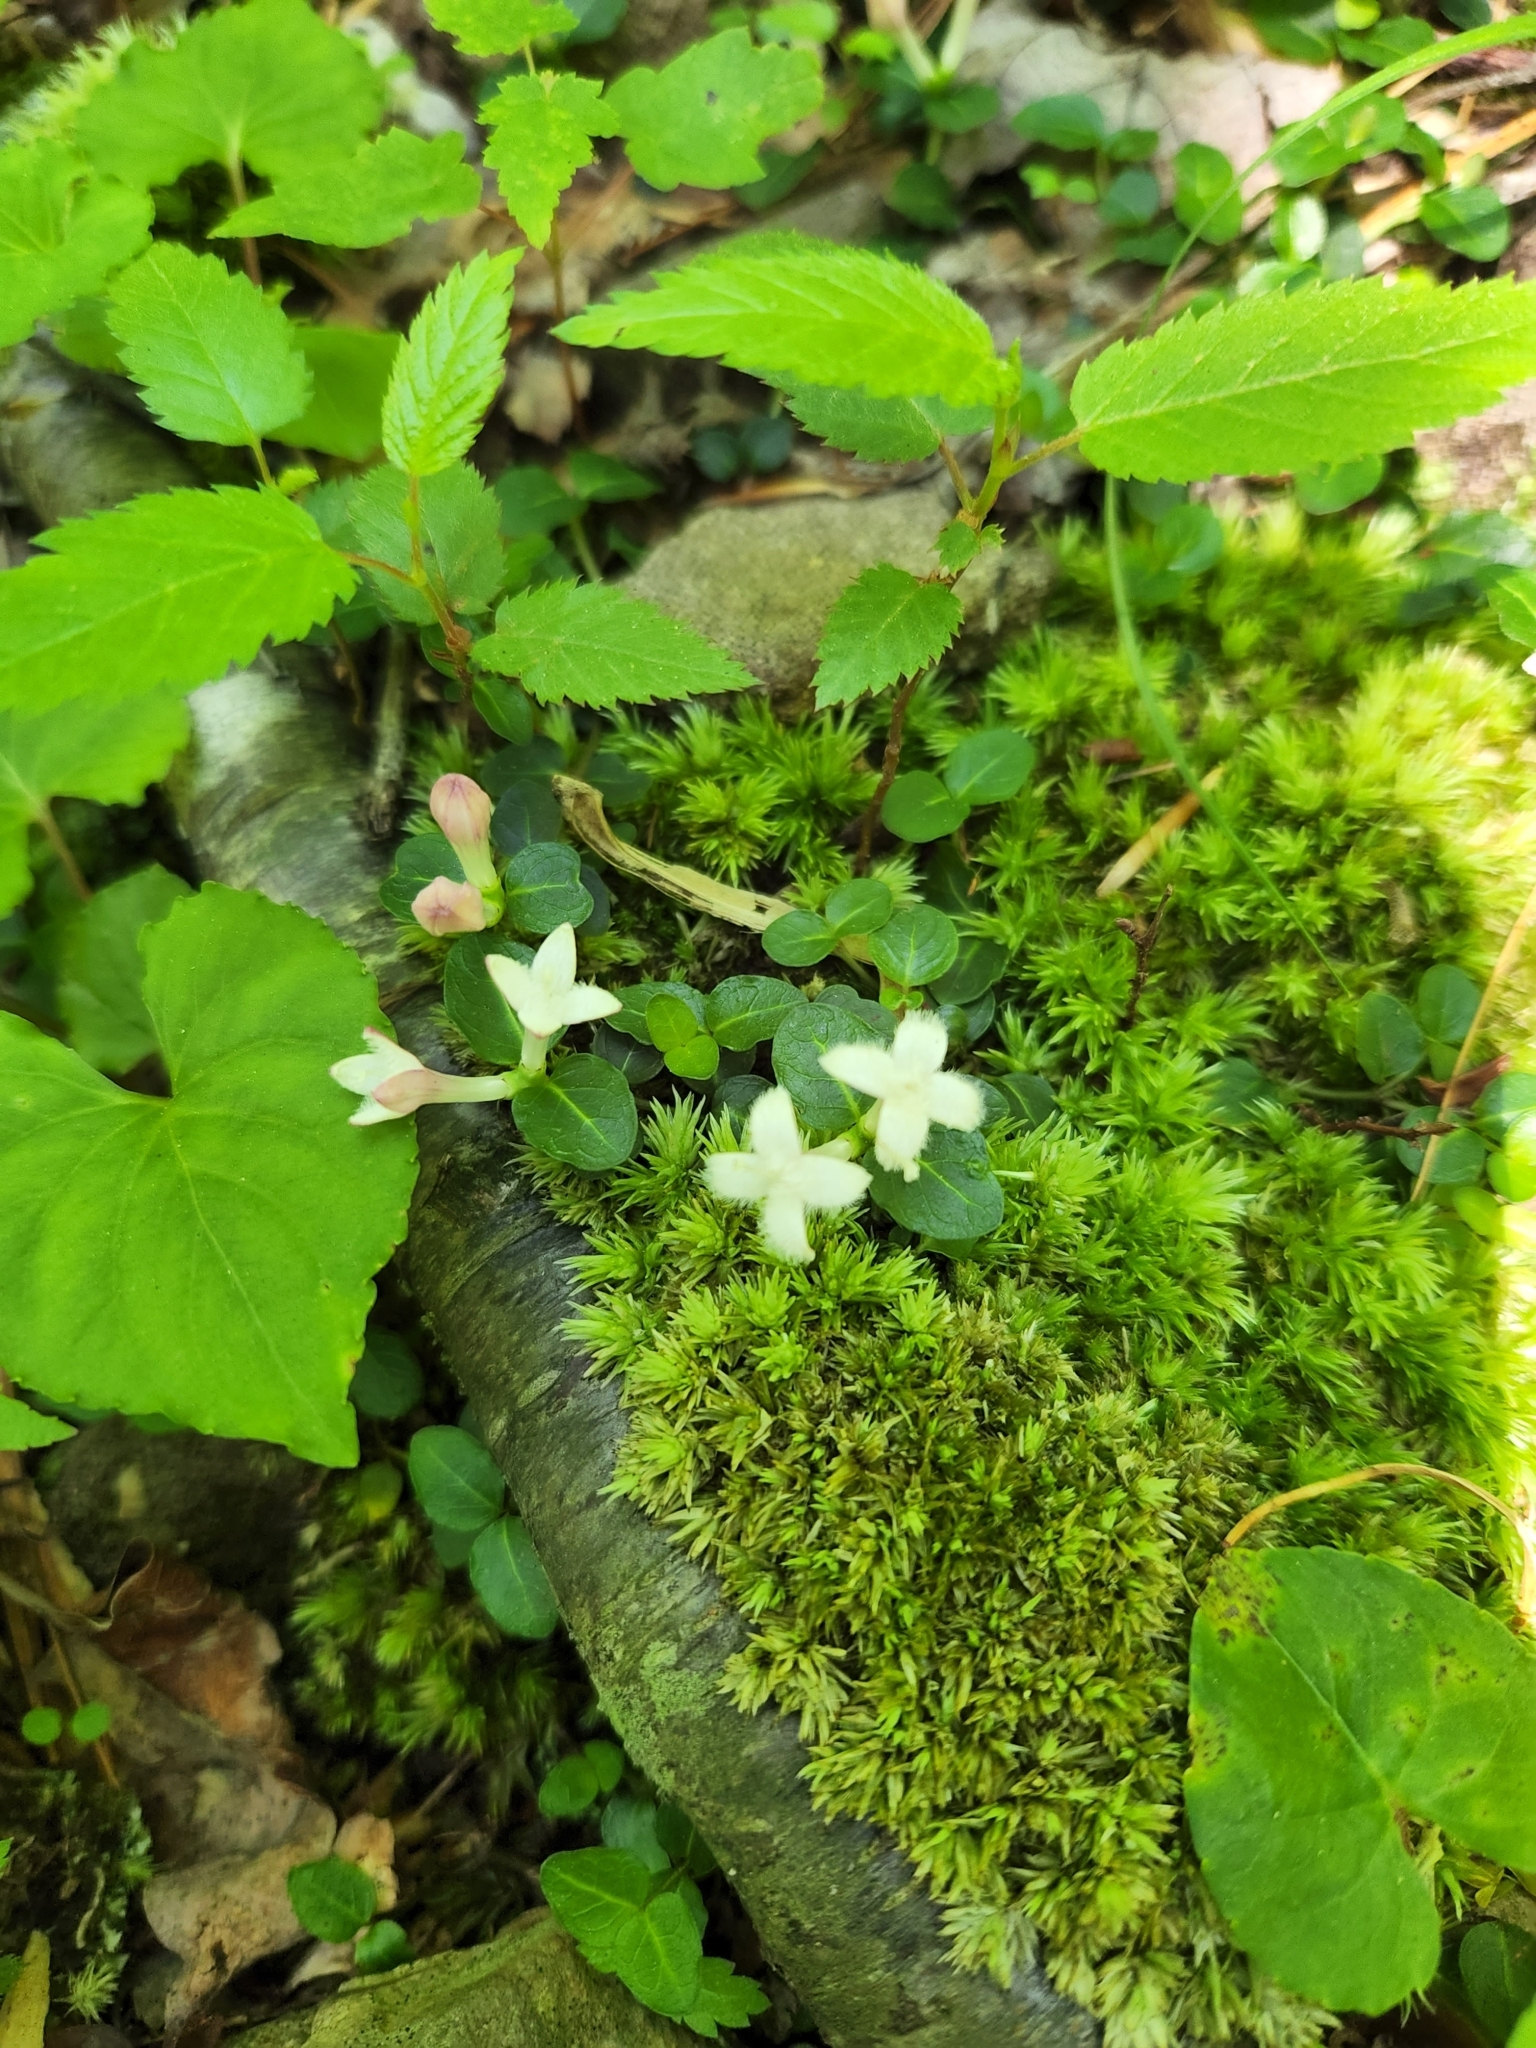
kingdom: Plantae
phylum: Tracheophyta
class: Magnoliopsida
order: Gentianales
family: Rubiaceae
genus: Mitchella
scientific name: Mitchella repens
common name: Partridge-berry
